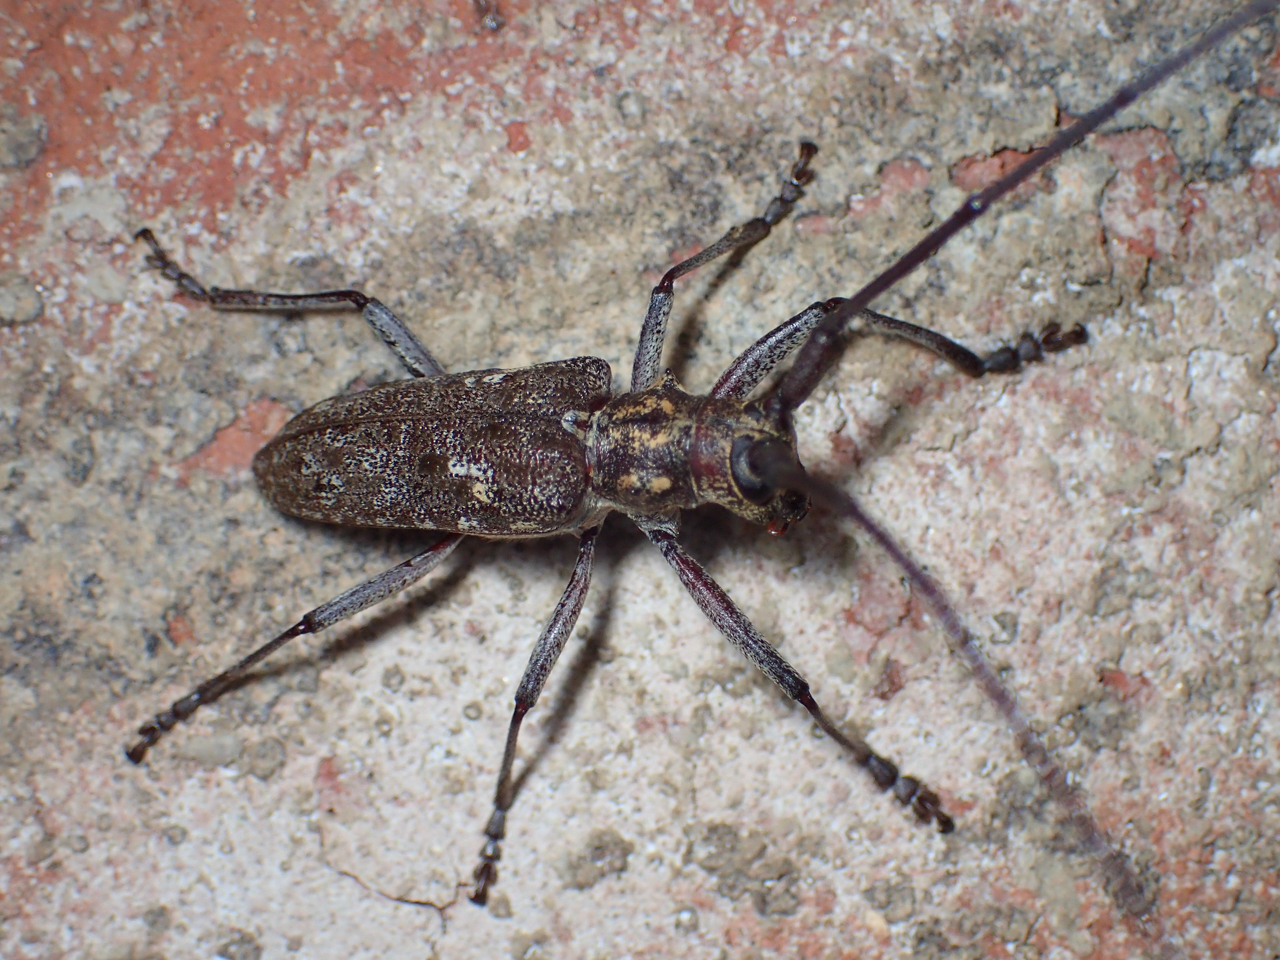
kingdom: Animalia
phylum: Arthropoda
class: Insecta
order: Coleoptera
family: Cerambycidae
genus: Monochamus
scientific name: Monochamus carolinensis
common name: Carolina pine sawyer
